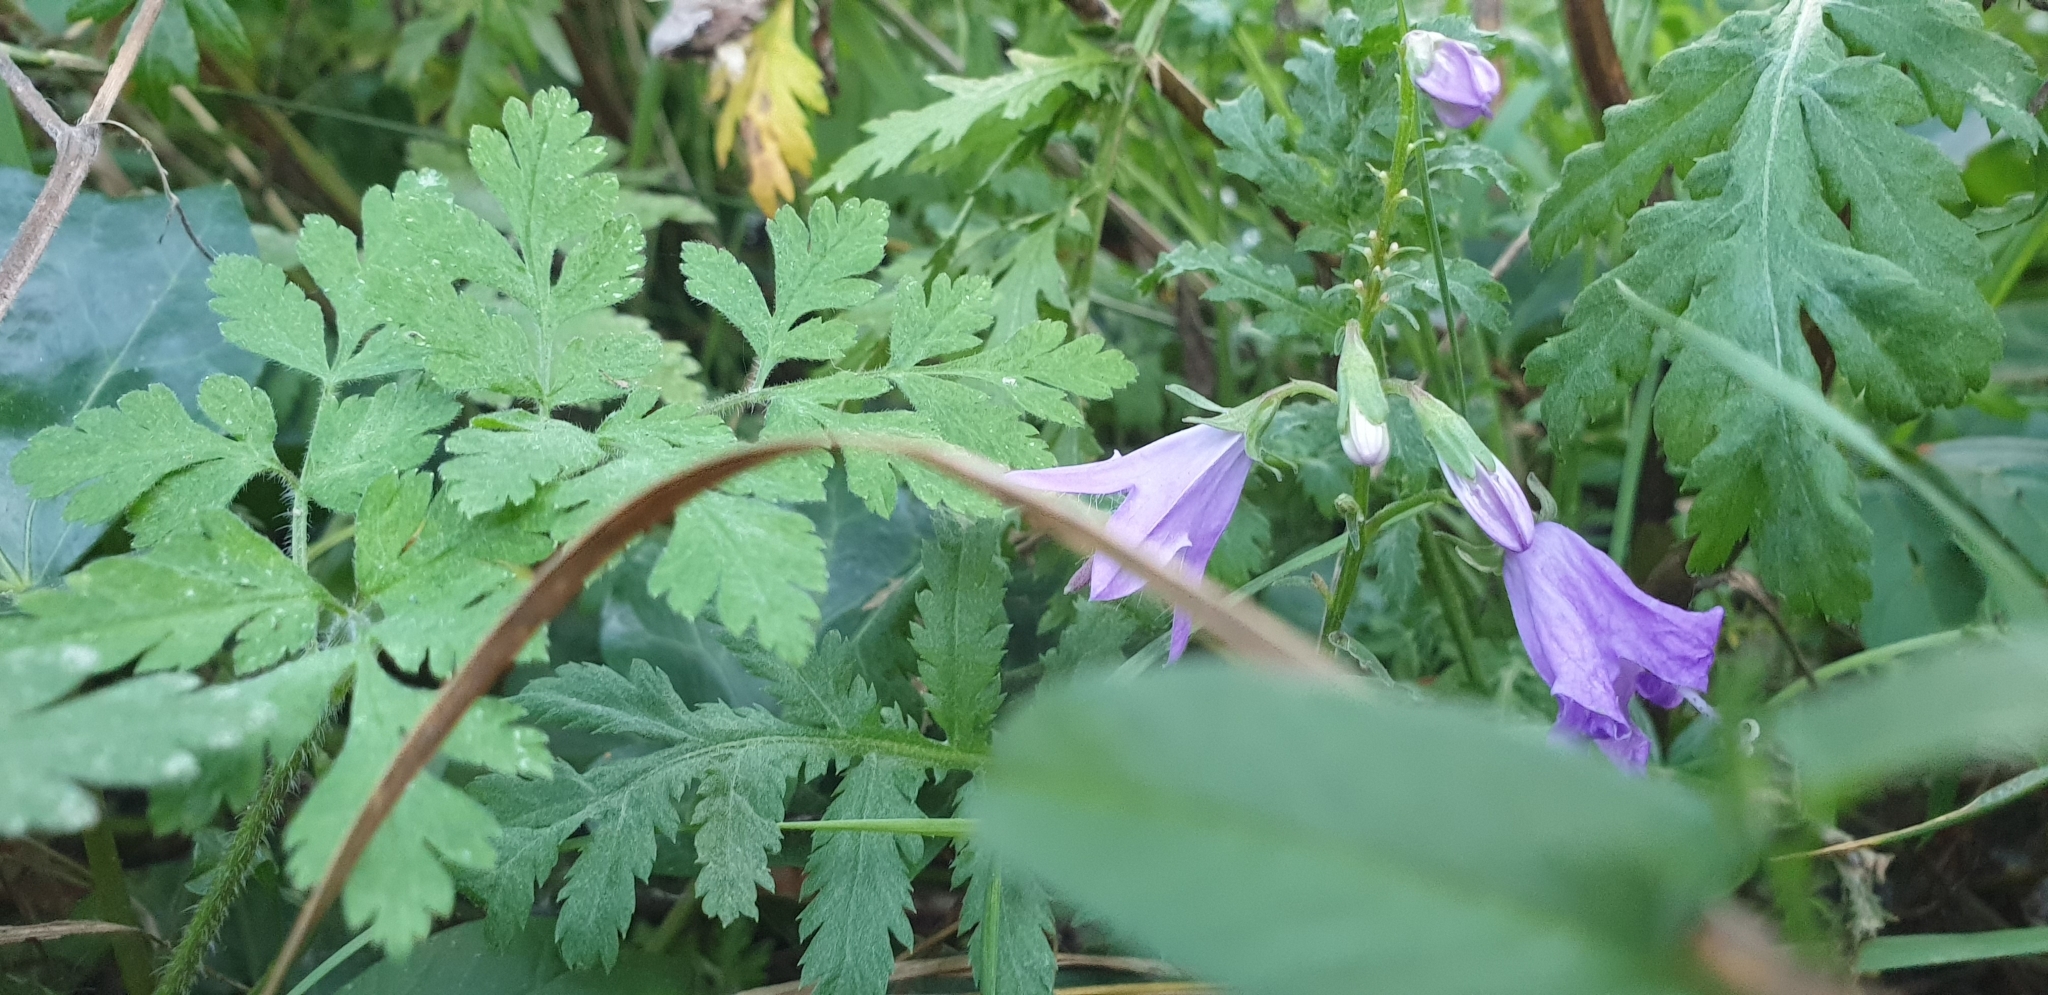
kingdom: Plantae
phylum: Tracheophyta
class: Magnoliopsida
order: Asterales
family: Campanulaceae
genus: Campanula
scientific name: Campanula rotundifolia
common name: Harebell
